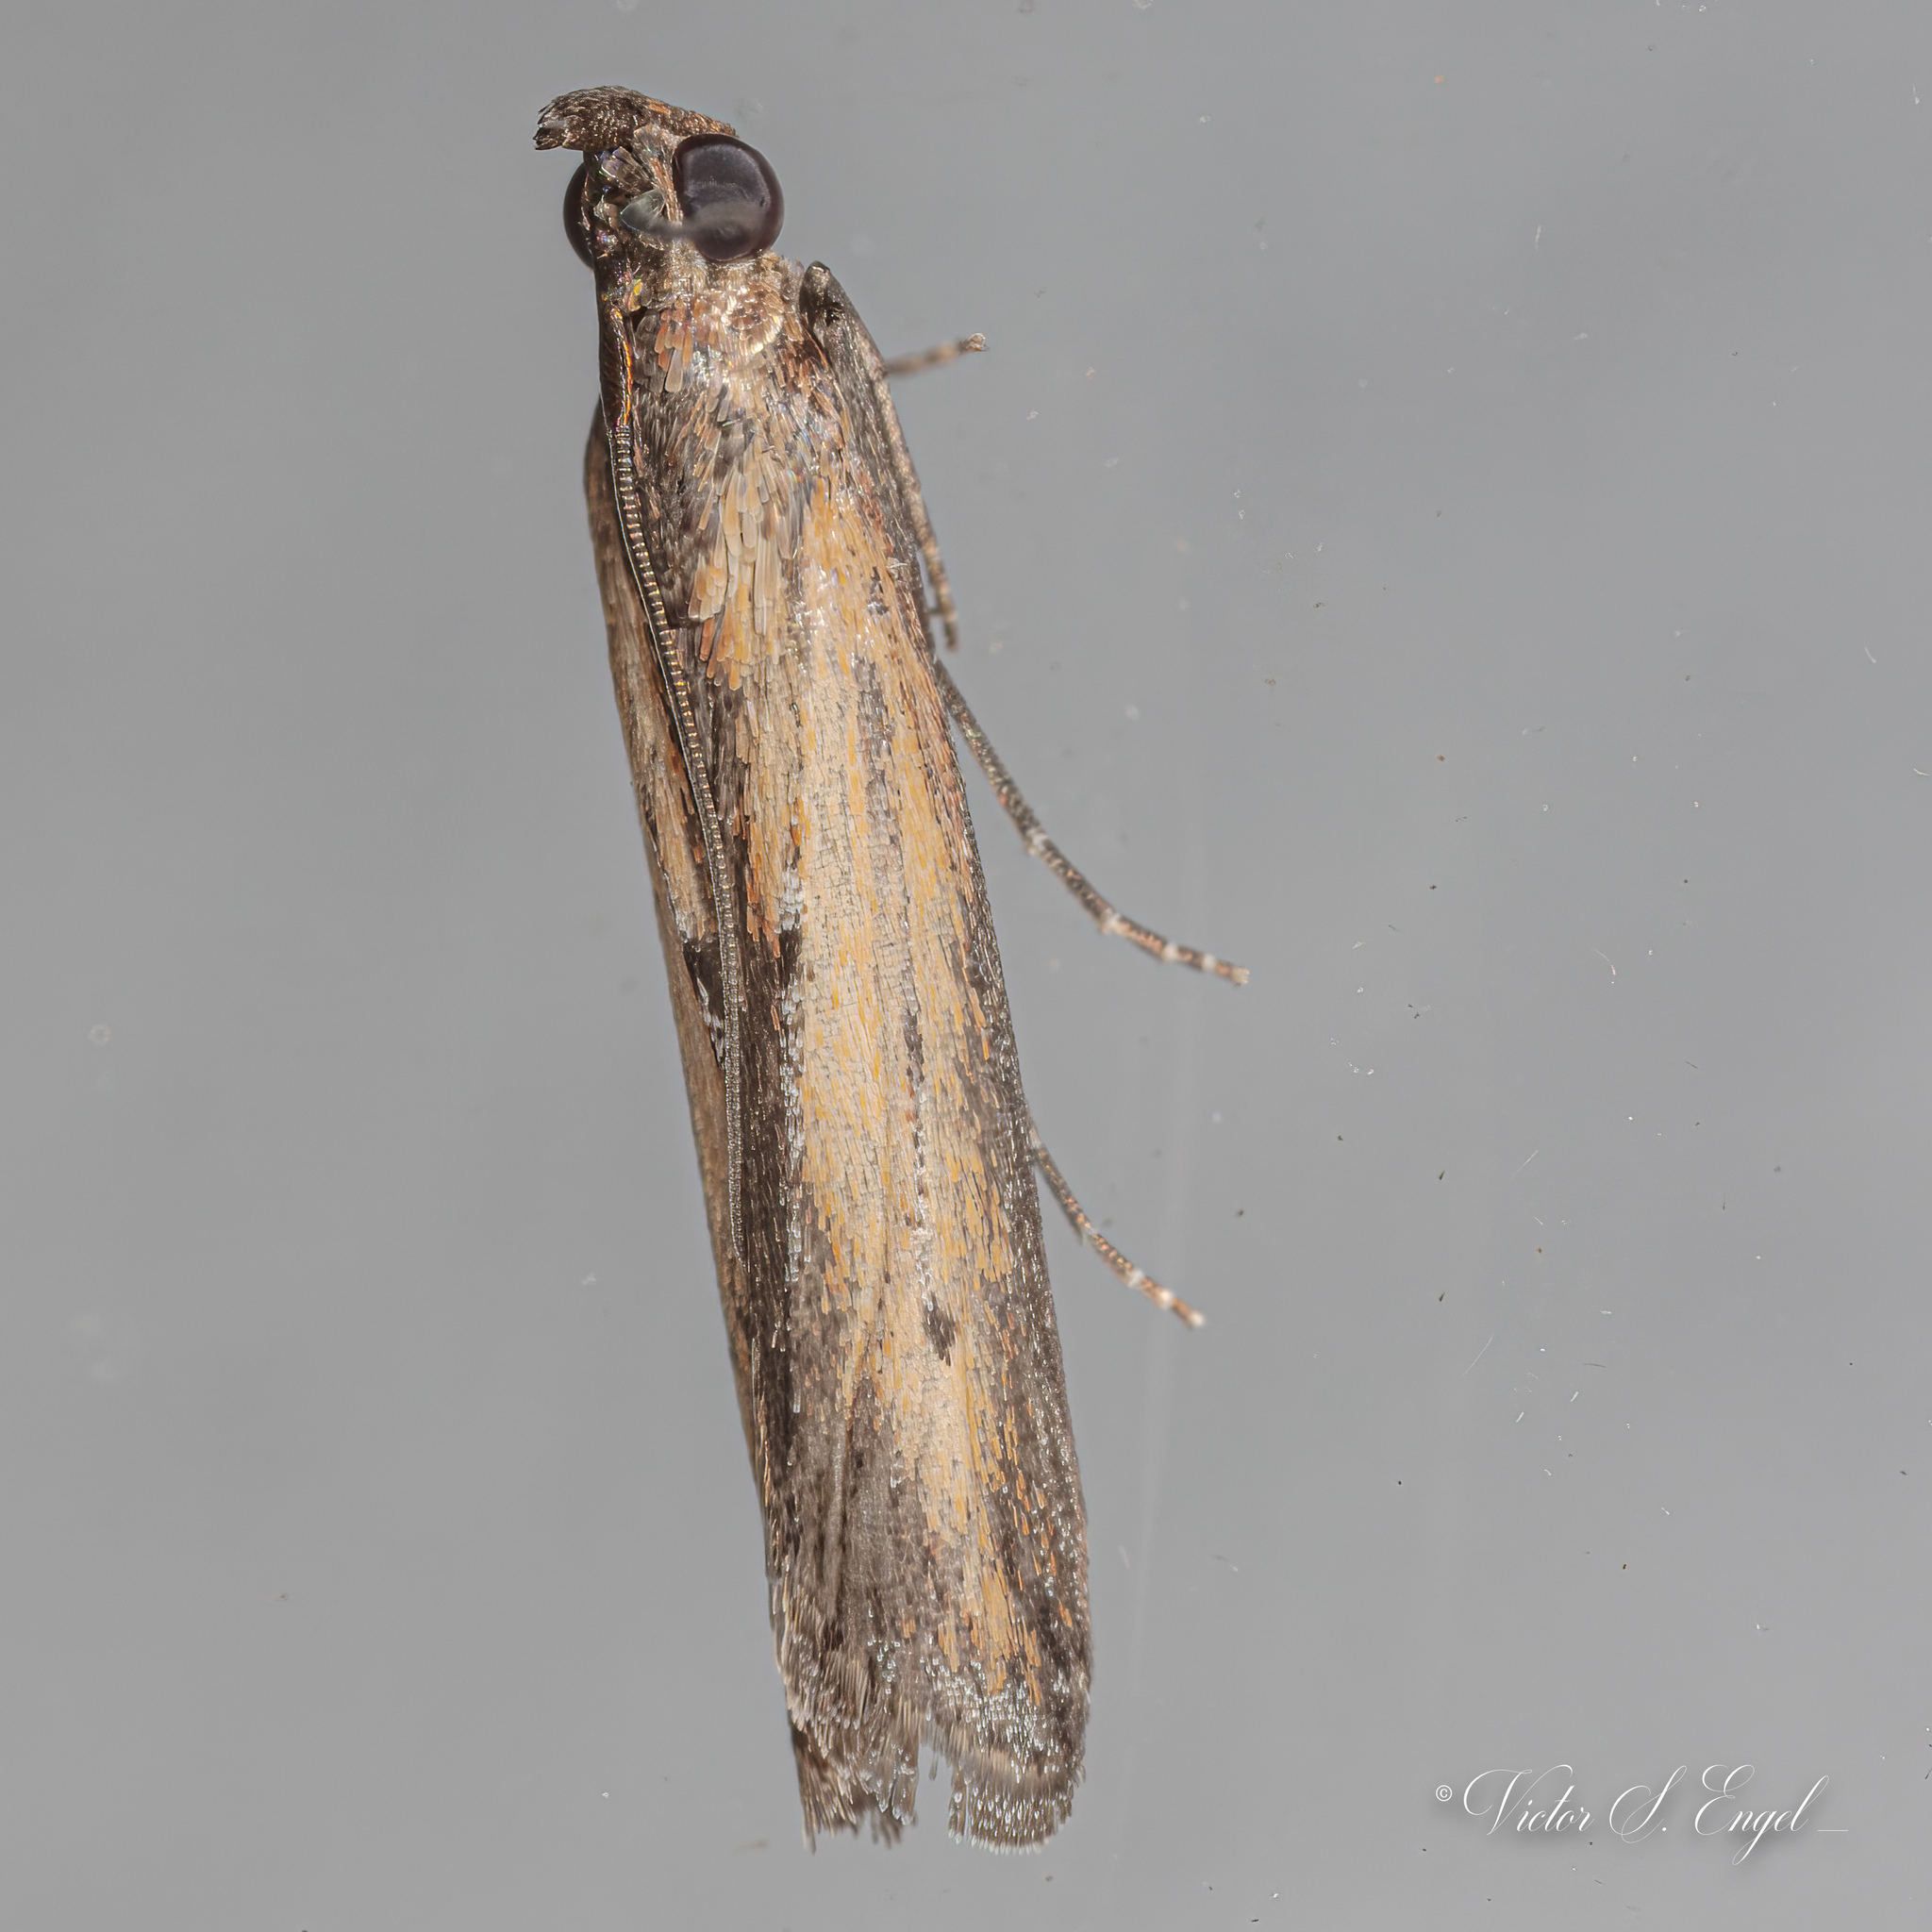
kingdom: Animalia
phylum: Arthropoda
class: Insecta
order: Lepidoptera
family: Pyralidae
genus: Elasmopalpus
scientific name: Elasmopalpus lignosella
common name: Lesser cornstalk borer
